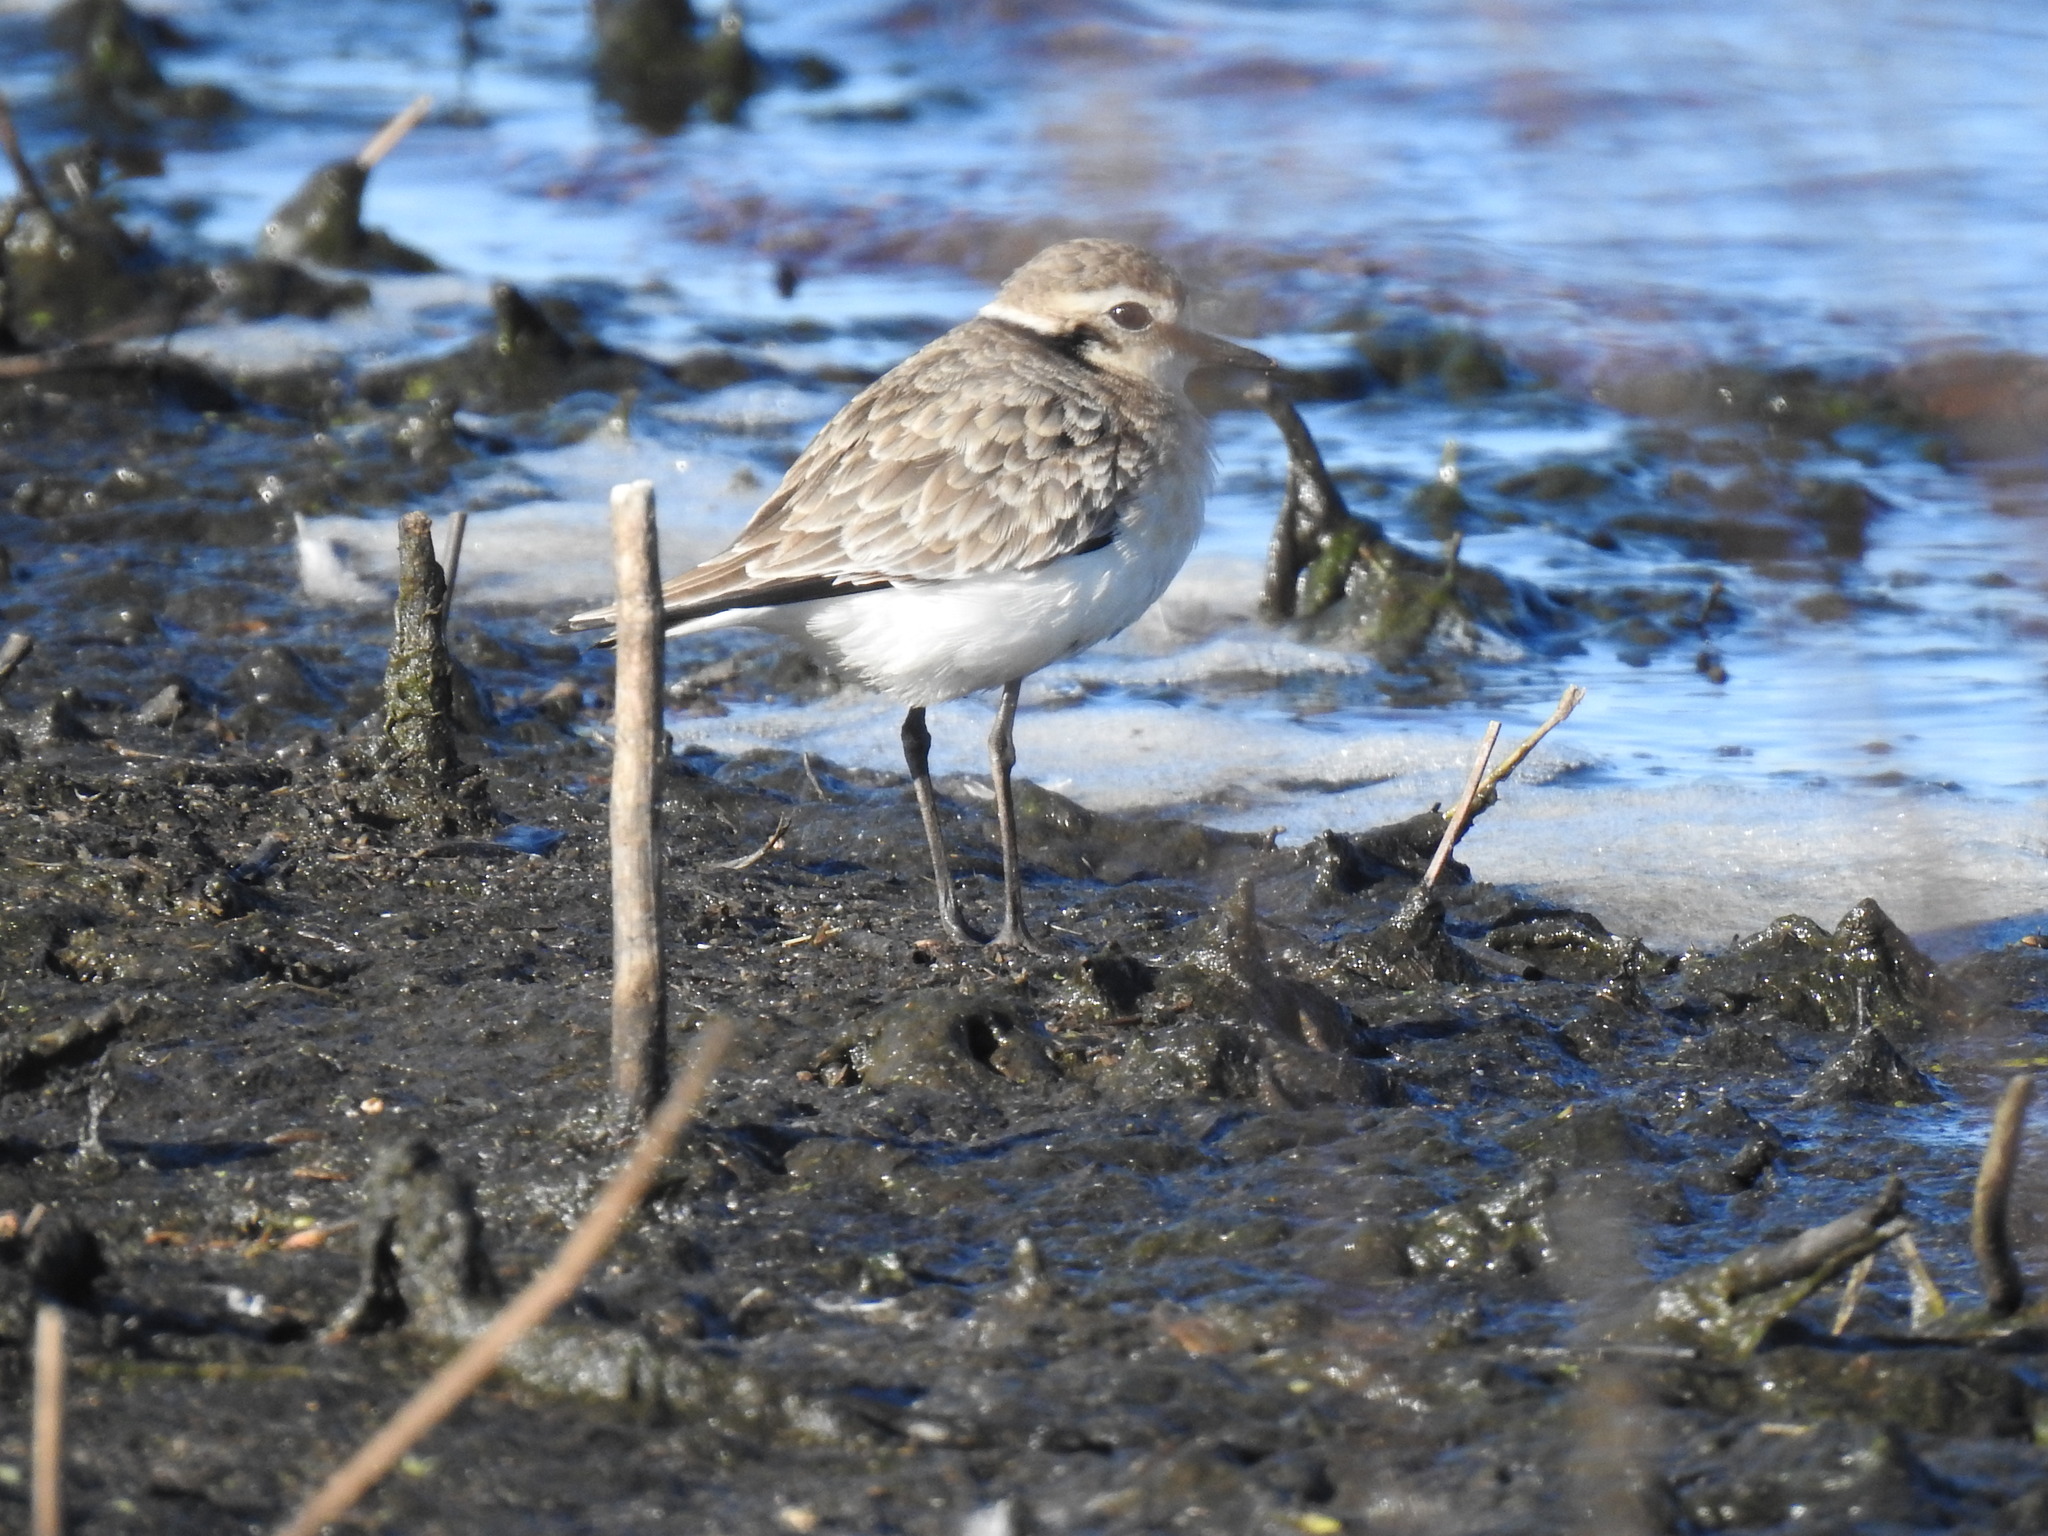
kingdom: Animalia
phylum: Chordata
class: Aves
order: Charadriiformes
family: Charadriidae
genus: Anarhynchus
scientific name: Anarhynchus
